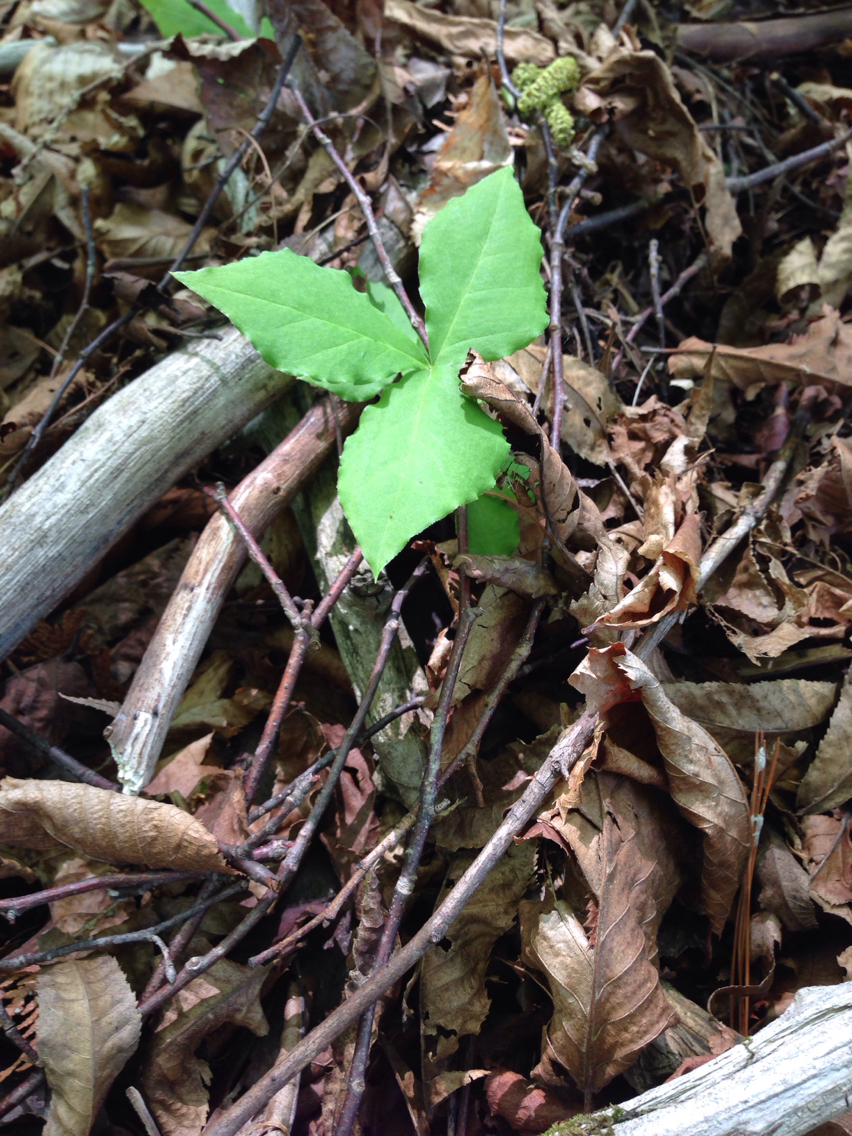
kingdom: Plantae
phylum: Tracheophyta
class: Liliopsida
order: Alismatales
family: Araceae
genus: Arisaema
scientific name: Arisaema triphyllum
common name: Jack-in-the-pulpit
